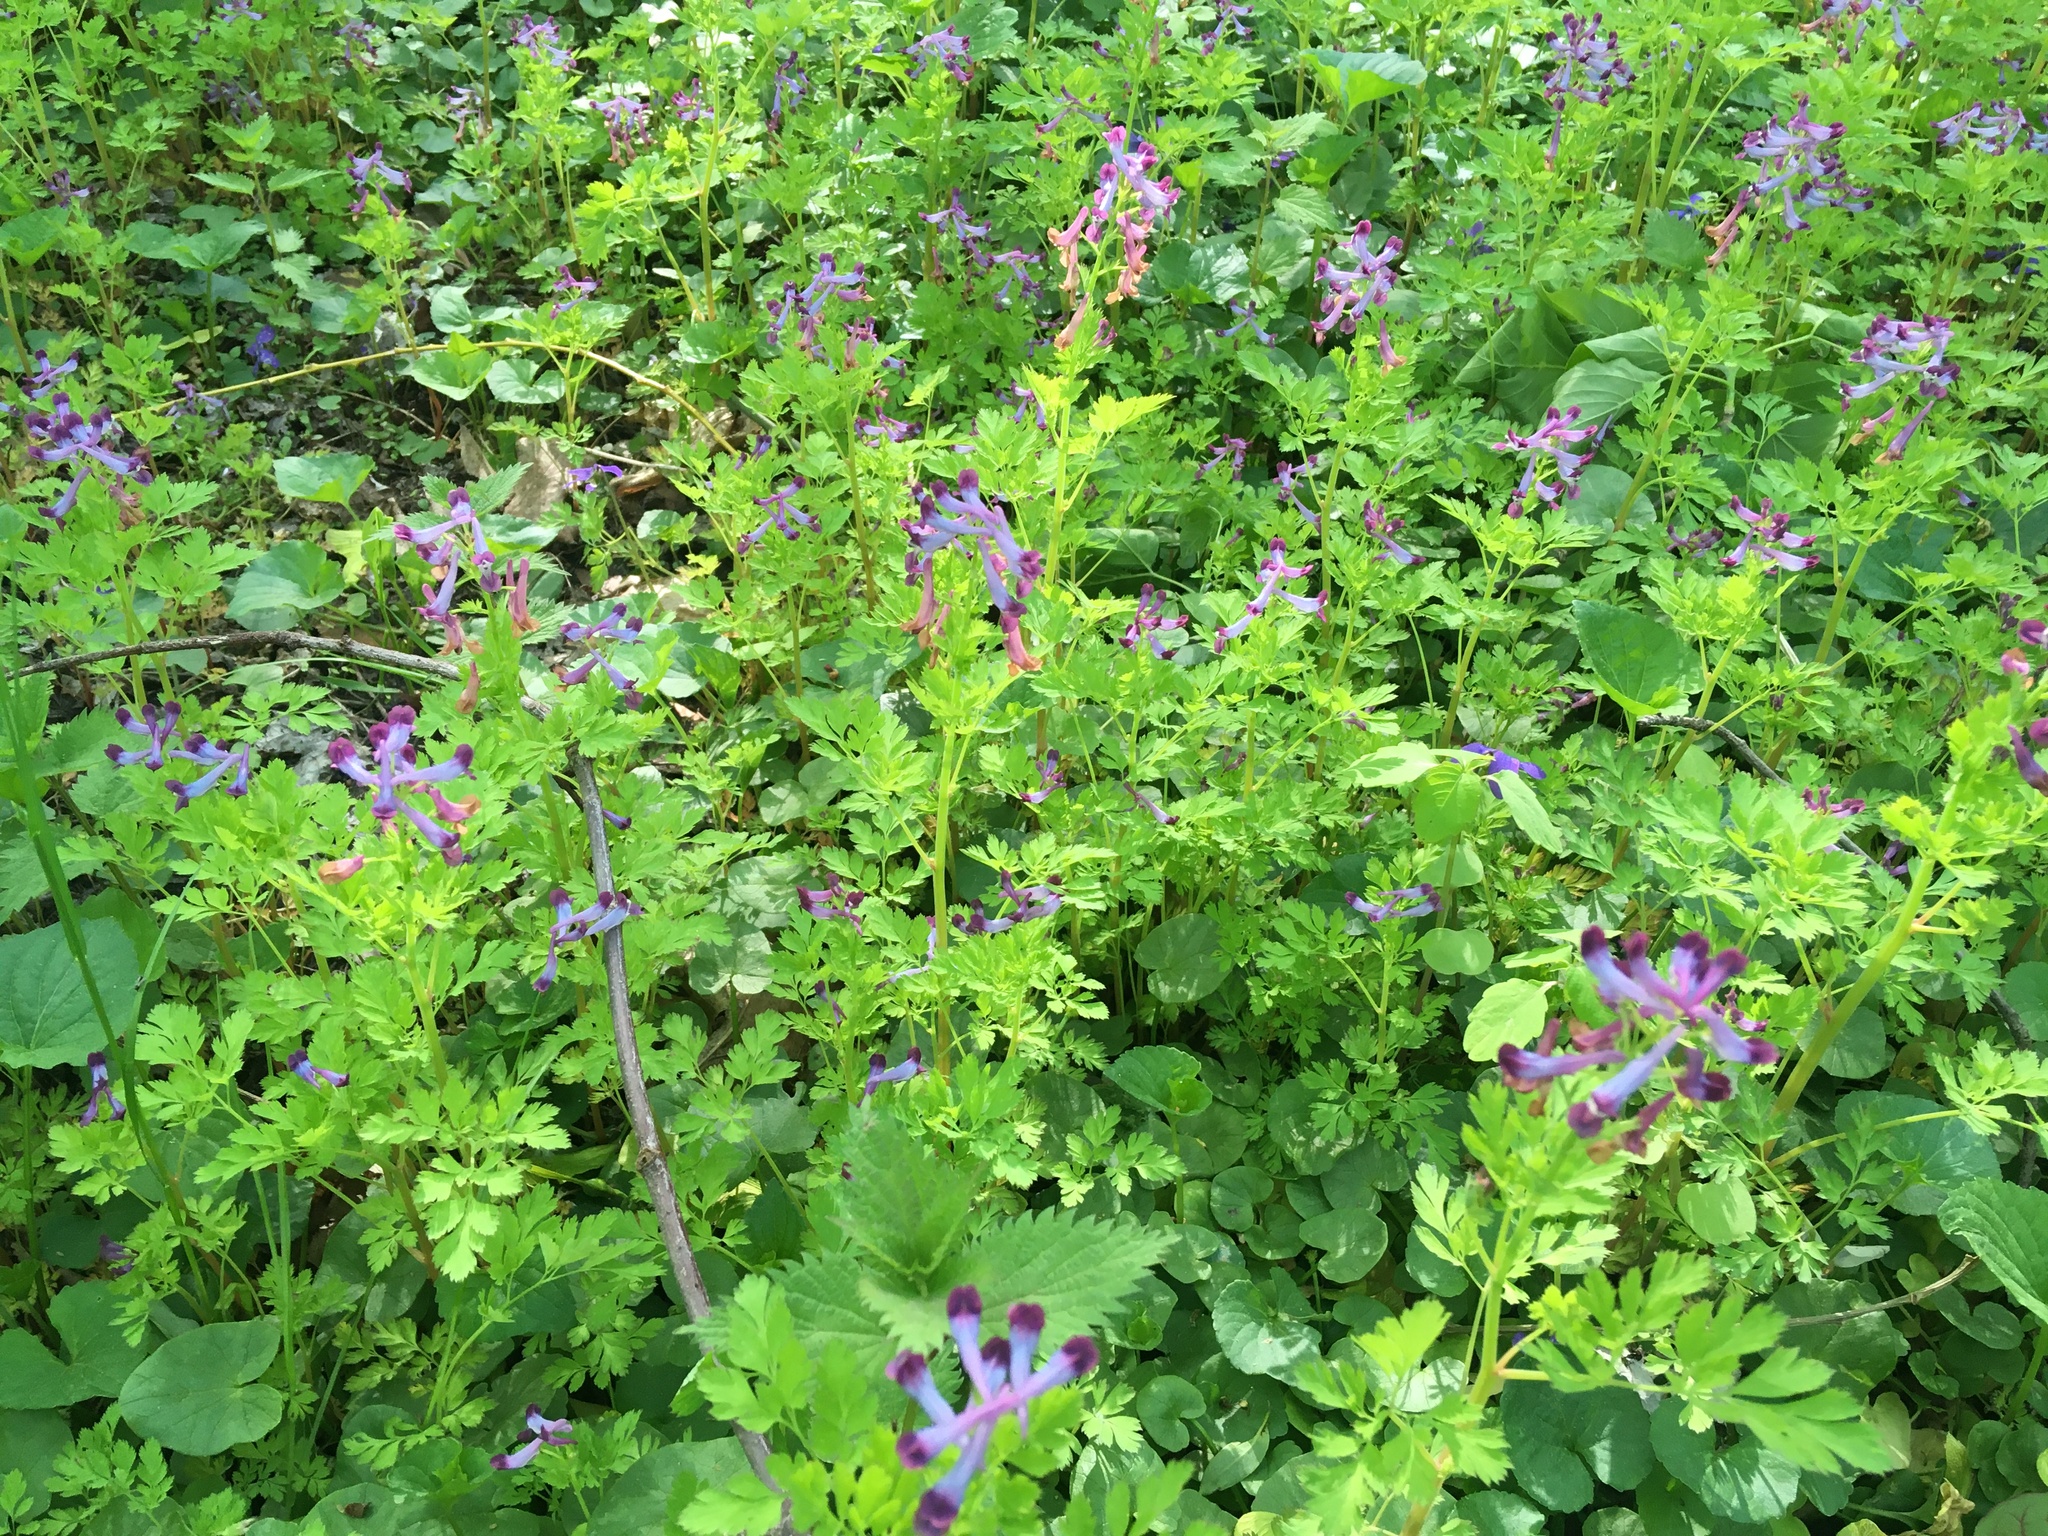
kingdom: Plantae
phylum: Tracheophyta
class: Magnoliopsida
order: Ranunculales
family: Papaveraceae
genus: Corydalis
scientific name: Corydalis incisa
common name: Incised fumewort
